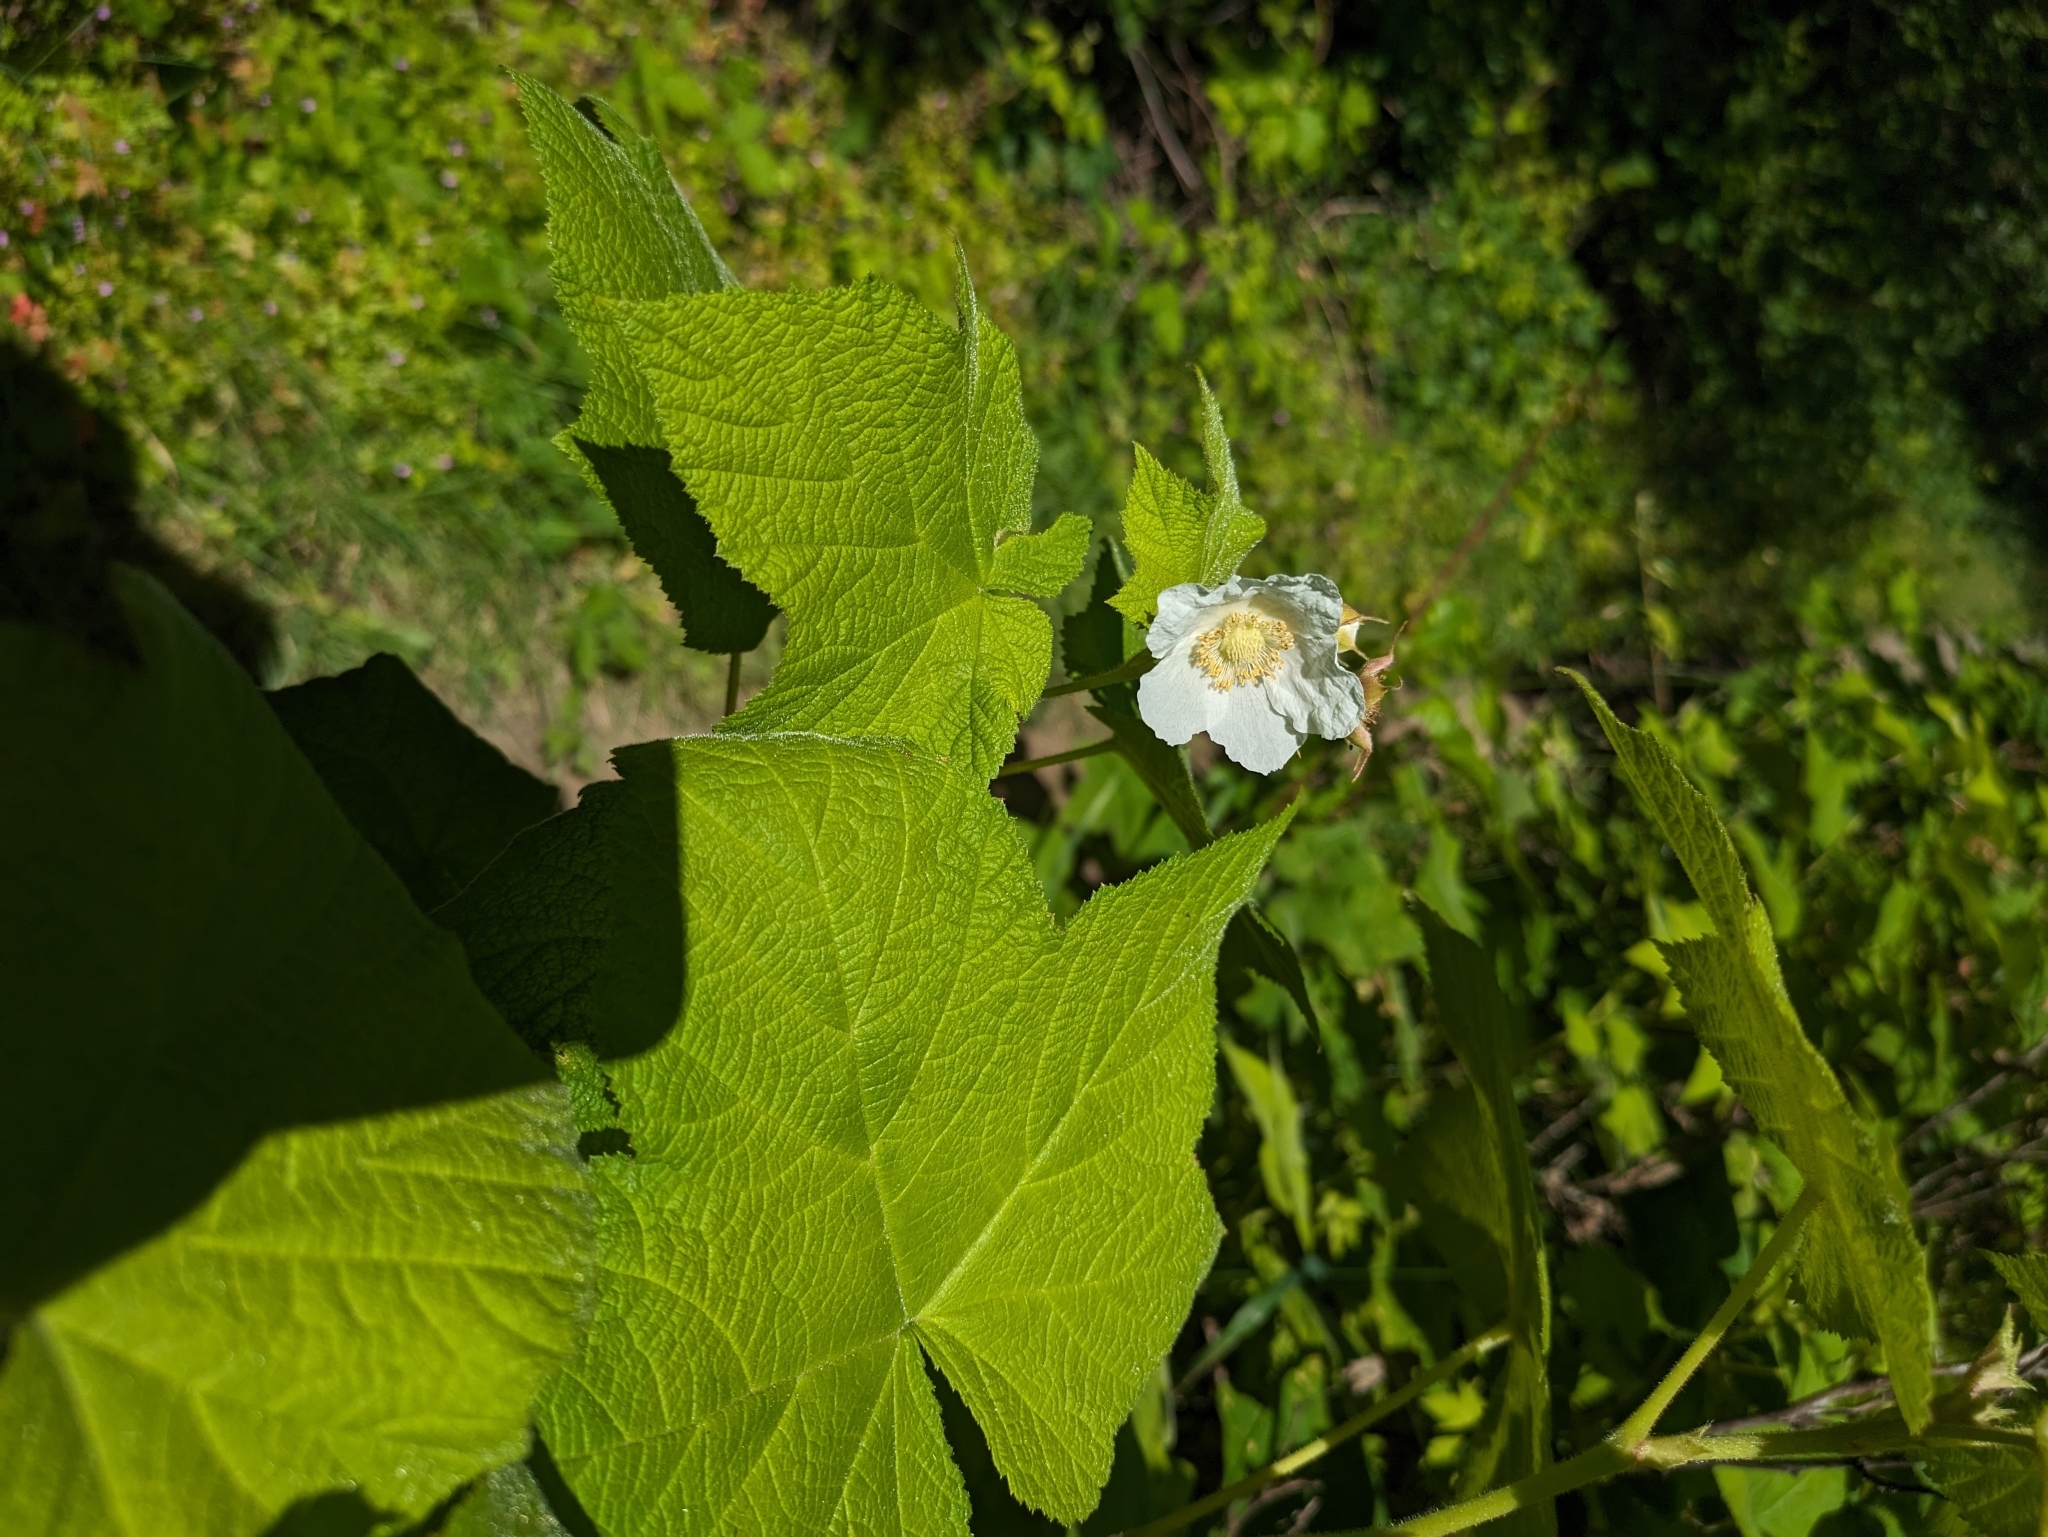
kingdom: Plantae
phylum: Tracheophyta
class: Magnoliopsida
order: Rosales
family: Rosaceae
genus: Rubus
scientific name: Rubus parviflorus
